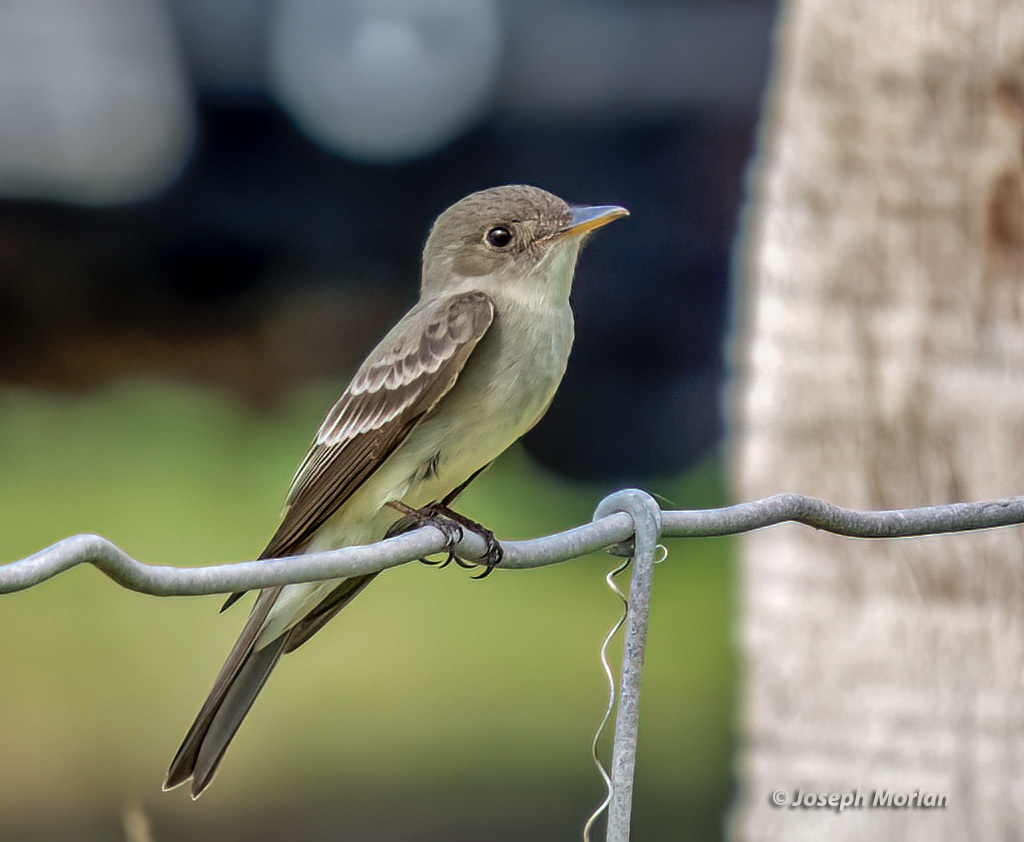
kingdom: Animalia
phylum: Chordata
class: Aves
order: Passeriformes
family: Tyrannidae
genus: Contopus
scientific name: Contopus virens
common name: Eastern wood-pewee
